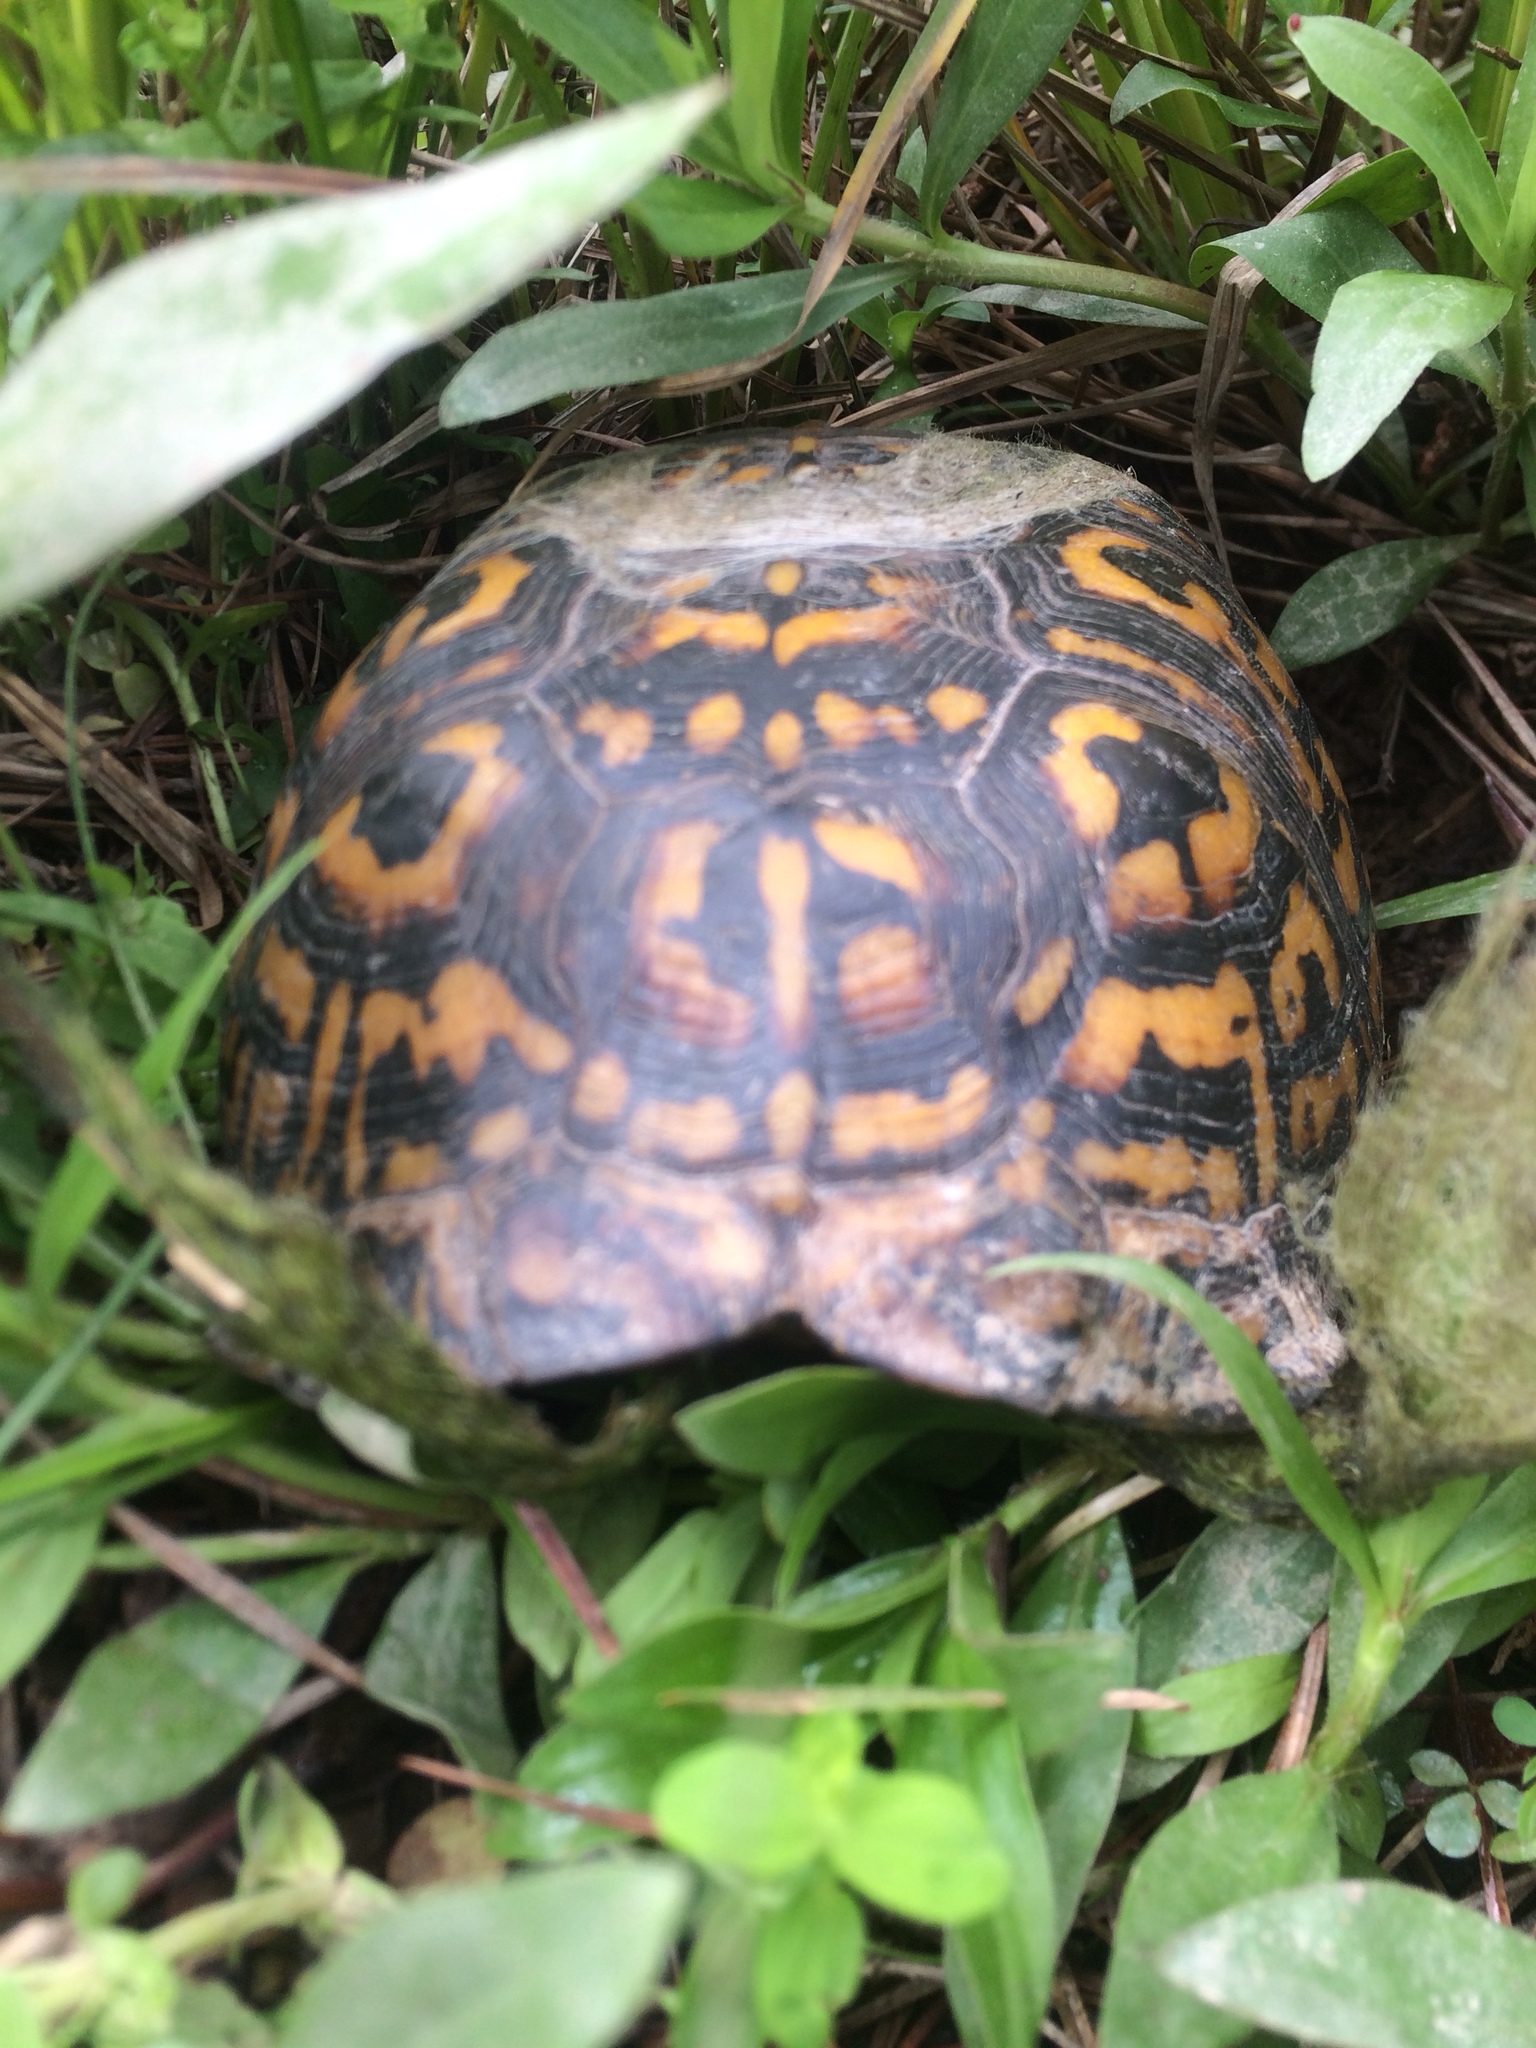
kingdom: Animalia
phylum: Chordata
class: Testudines
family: Emydidae
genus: Terrapene
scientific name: Terrapene carolina
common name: Common box turtle
